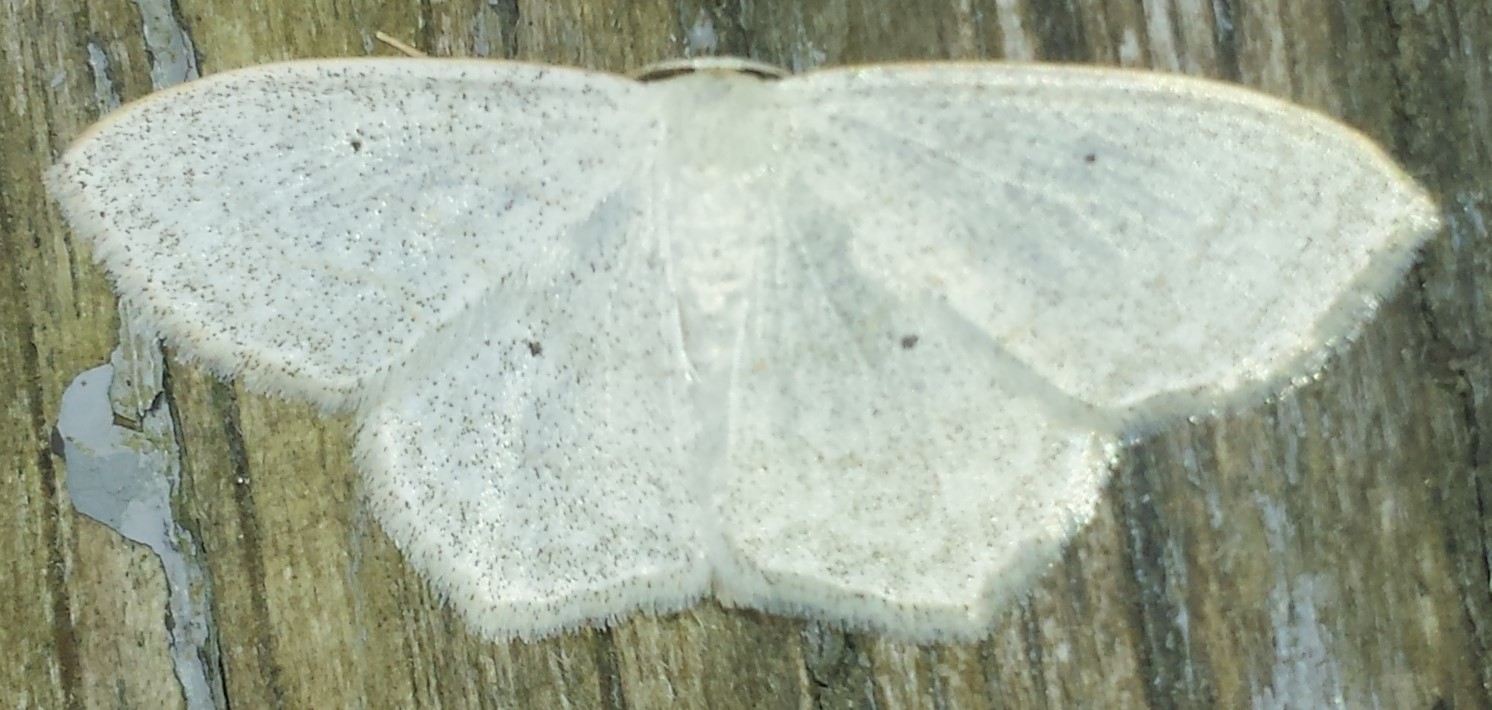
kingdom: Animalia
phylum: Arthropoda
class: Insecta
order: Lepidoptera
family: Geometridae
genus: Scopula
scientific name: Scopula limboundata
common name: Large lace border
